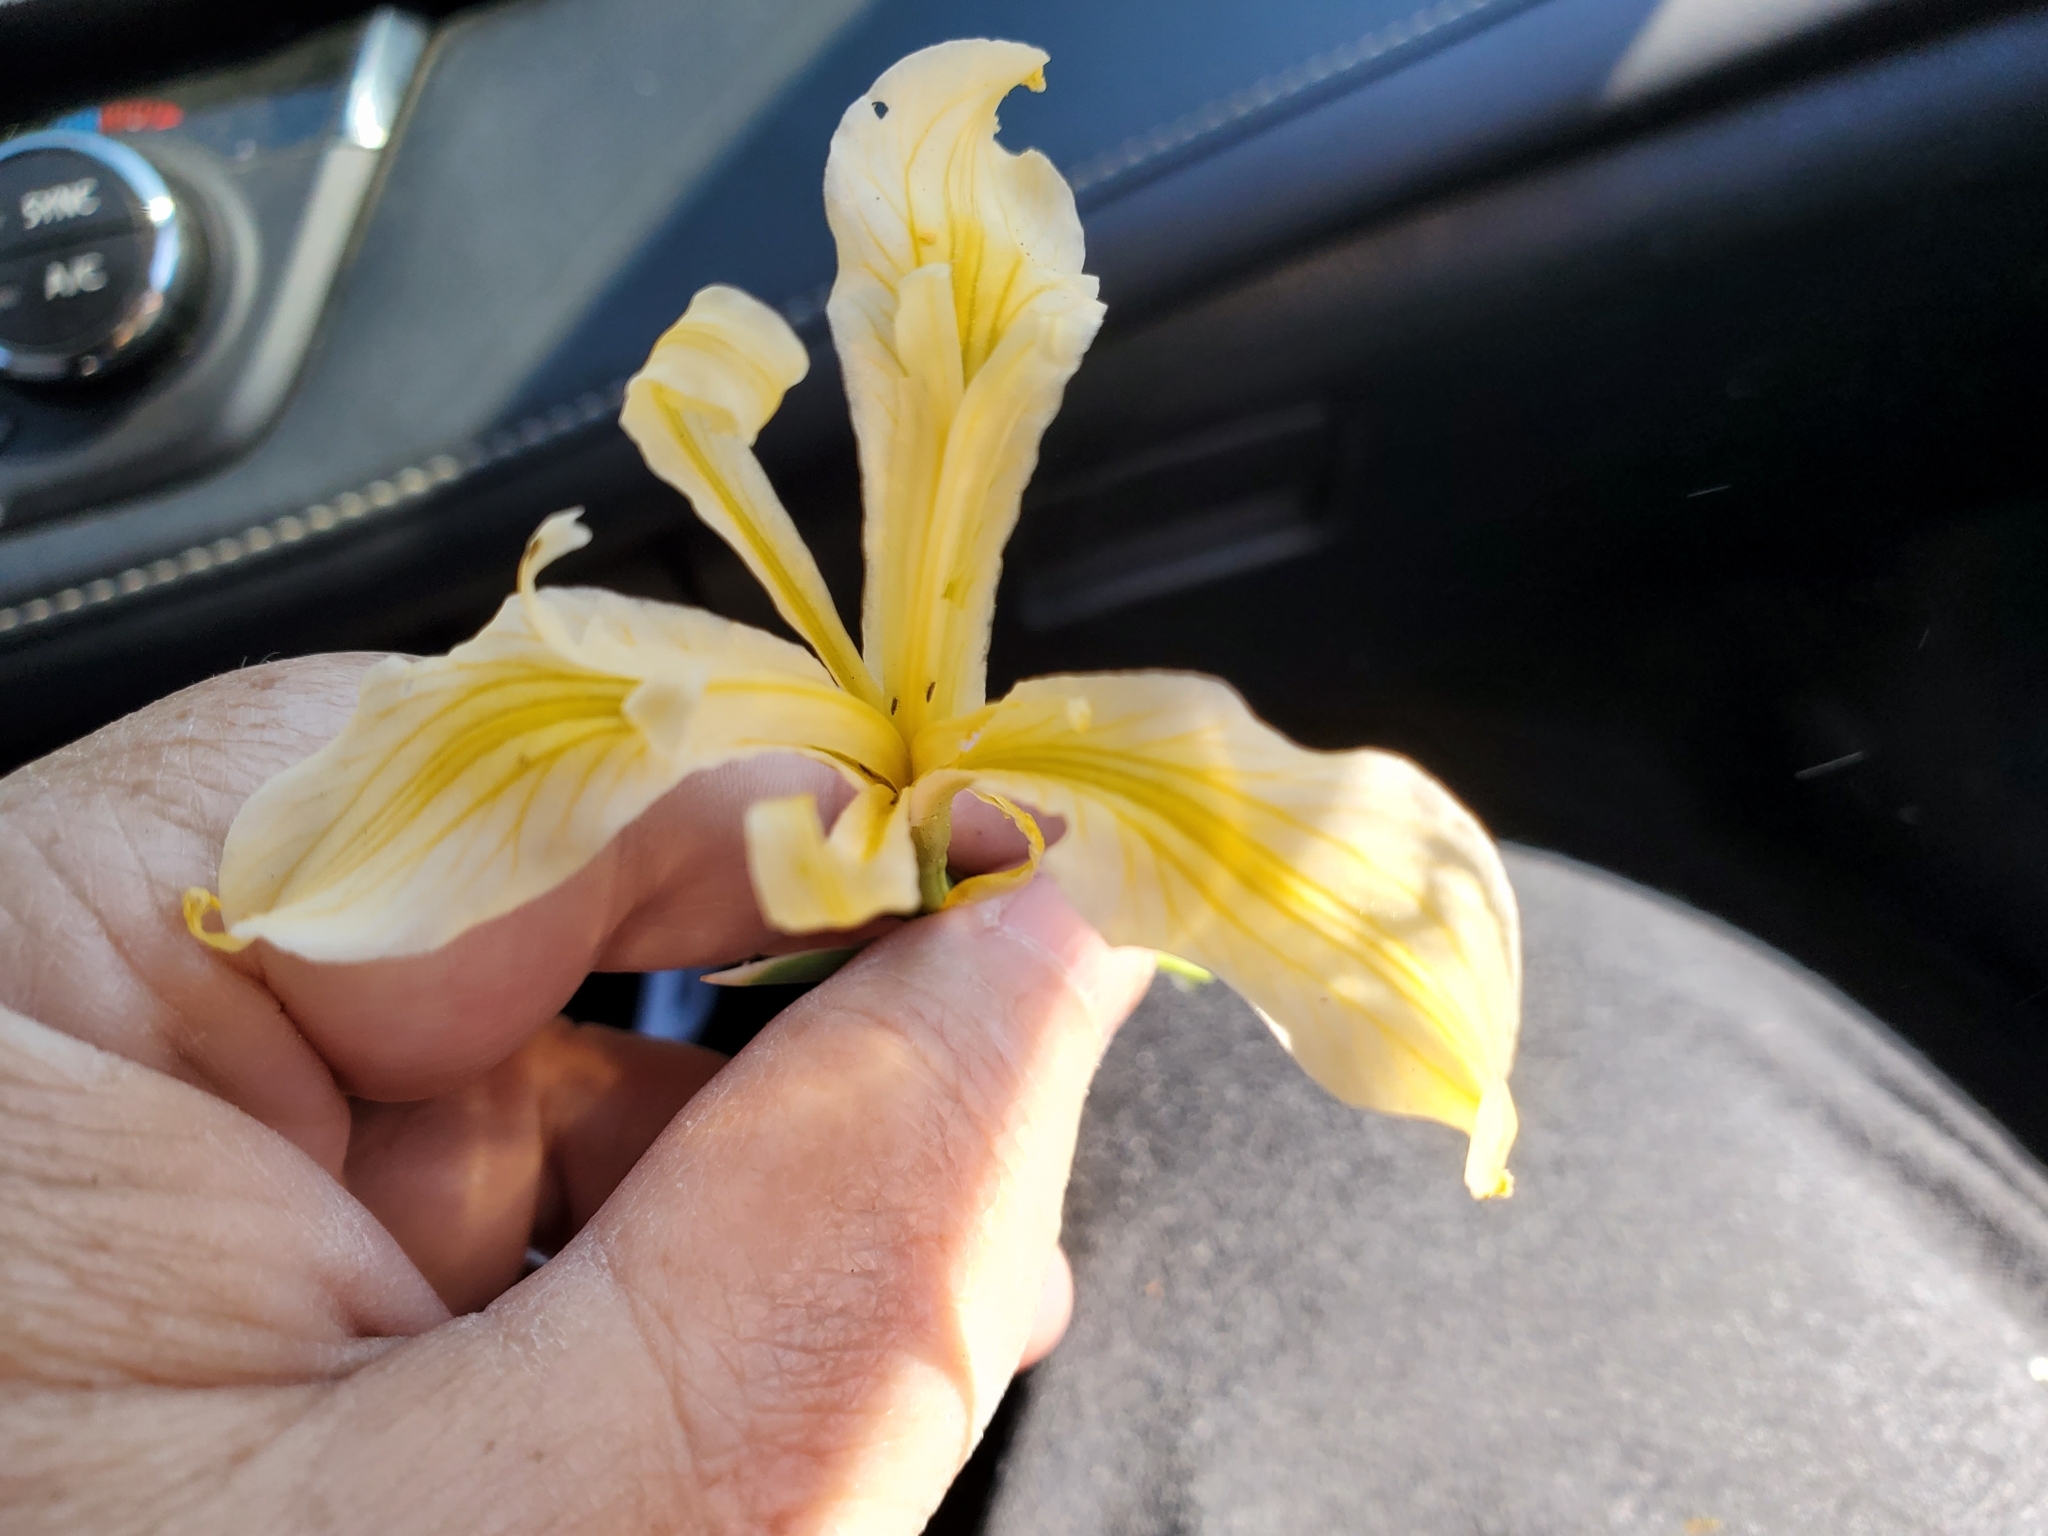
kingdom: Plantae
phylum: Tracheophyta
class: Liliopsida
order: Asparagales
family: Iridaceae
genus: Iris
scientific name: Iris hartwegii
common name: Sierra iris
